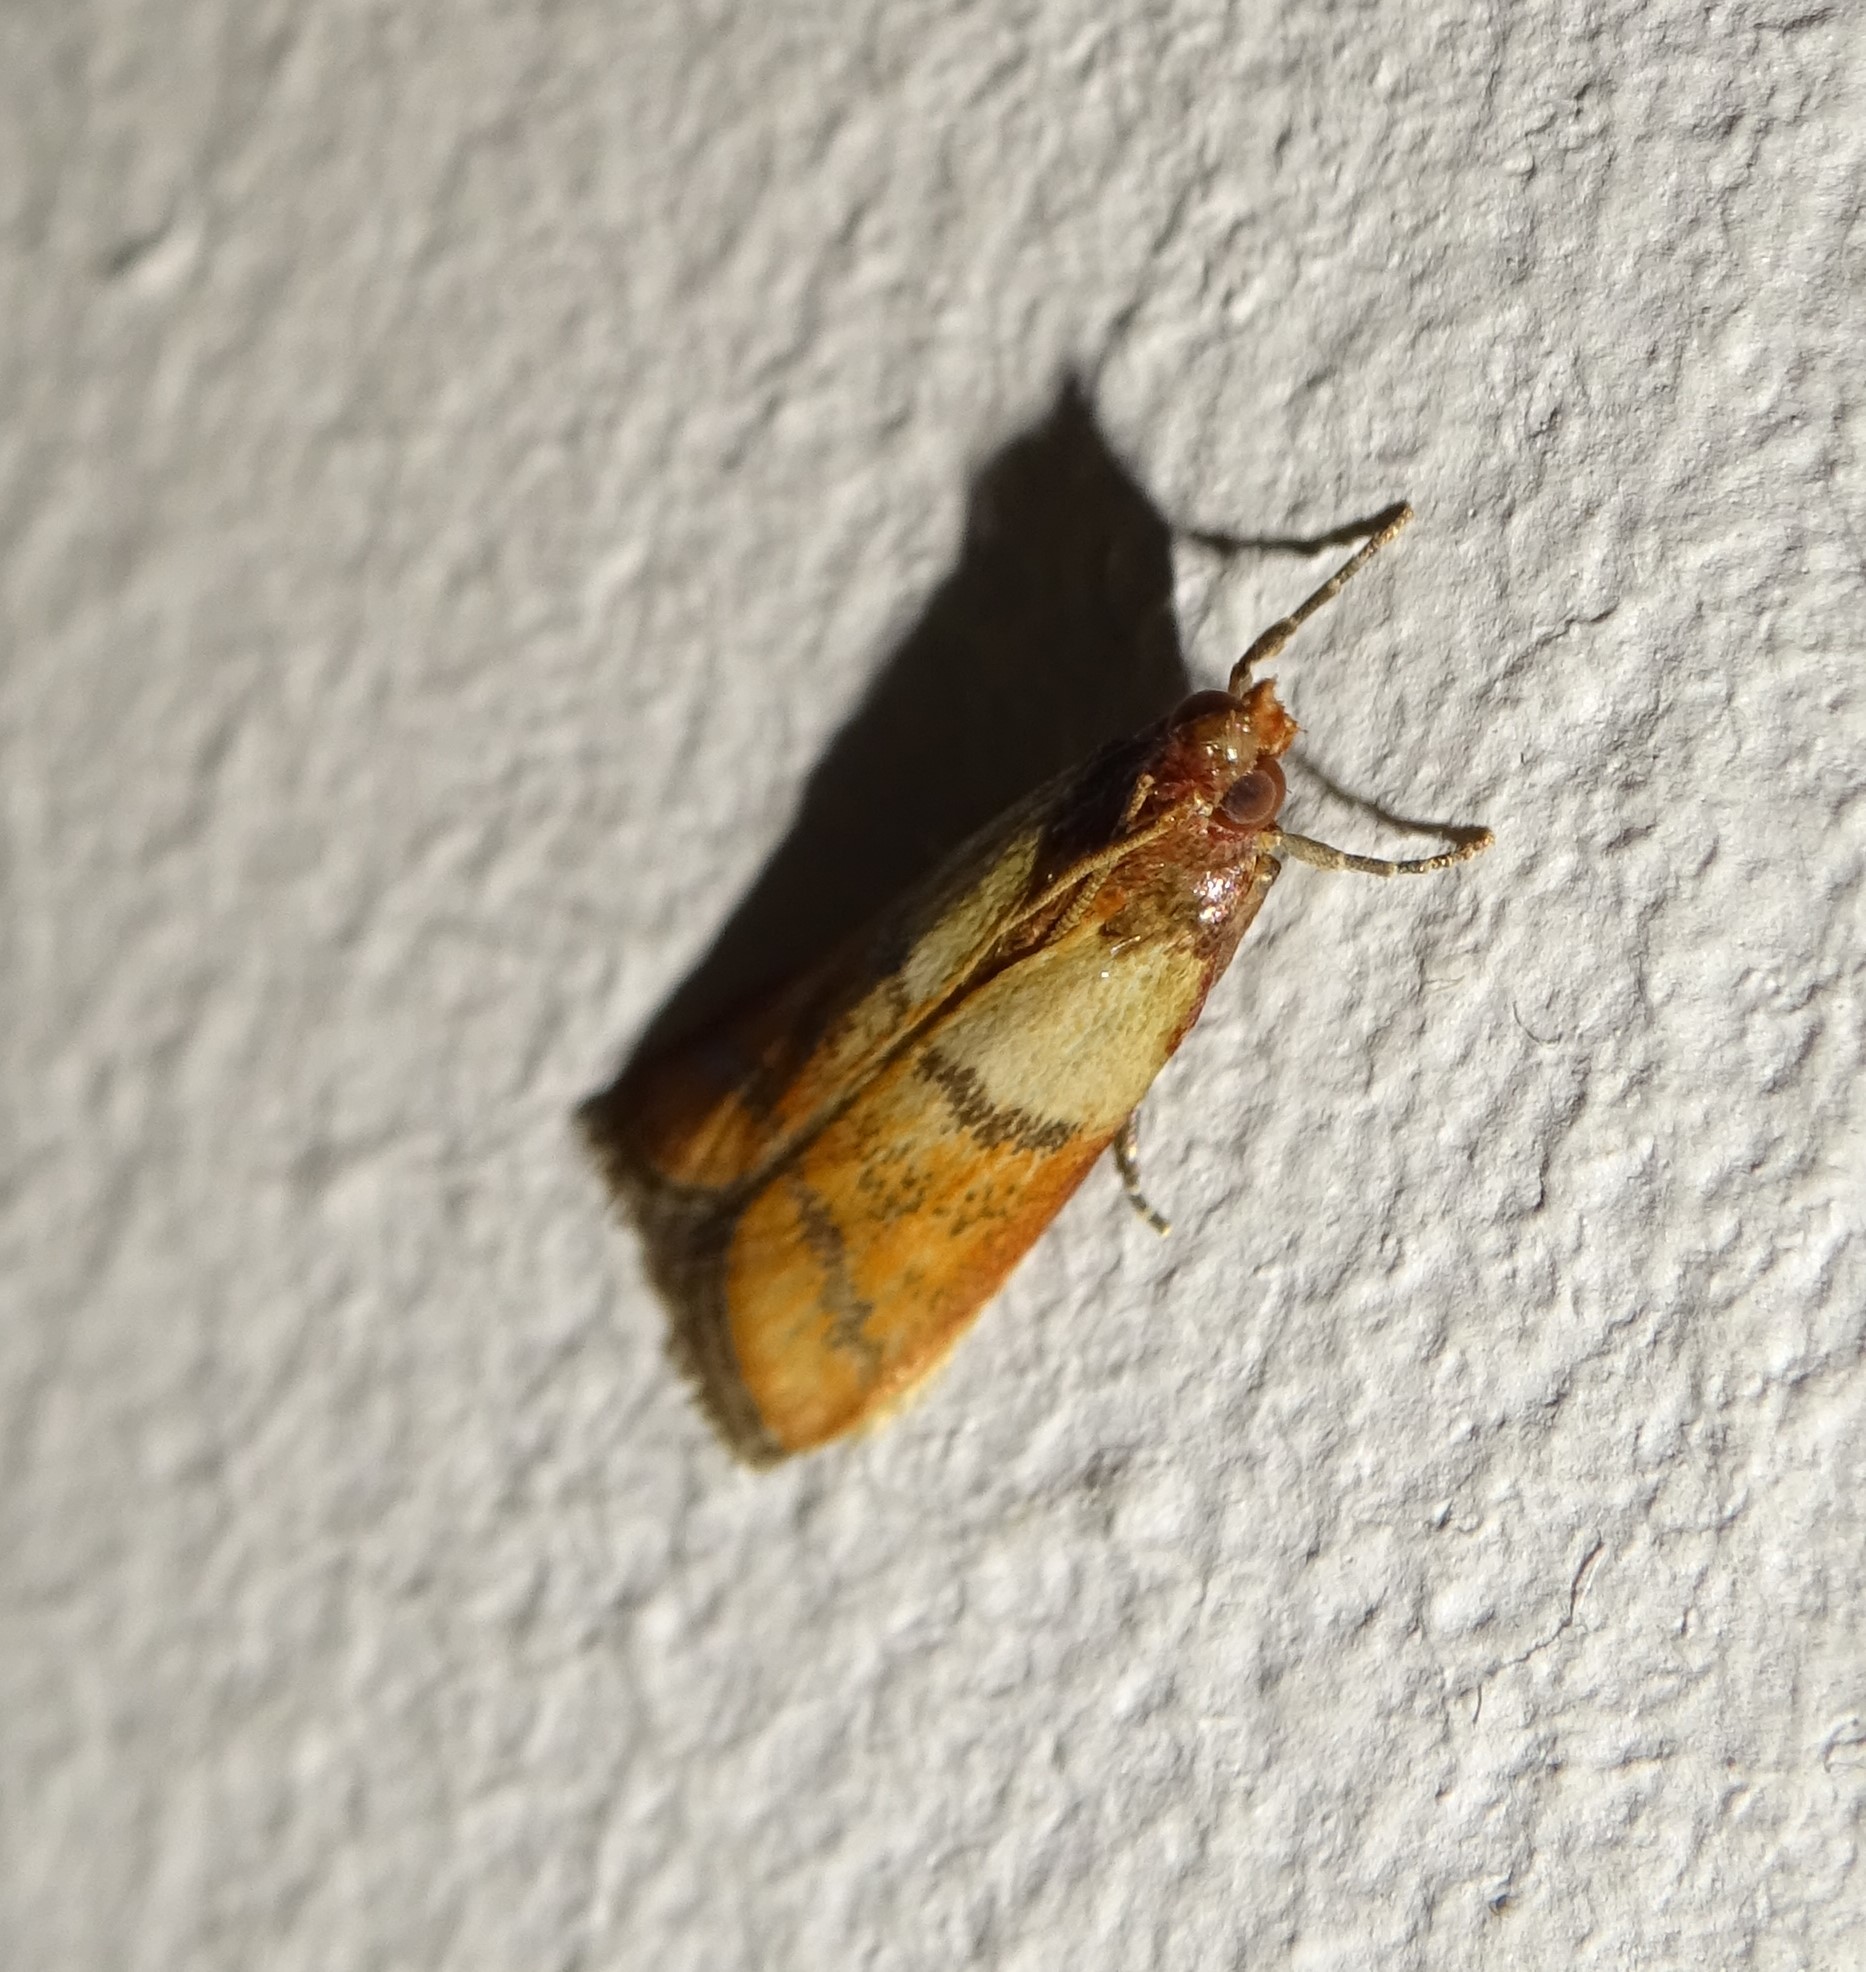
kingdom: Animalia
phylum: Arthropoda
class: Insecta
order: Lepidoptera
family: Pyralidae
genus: Plodia
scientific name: Plodia interpunctella
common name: Indian meal moth
